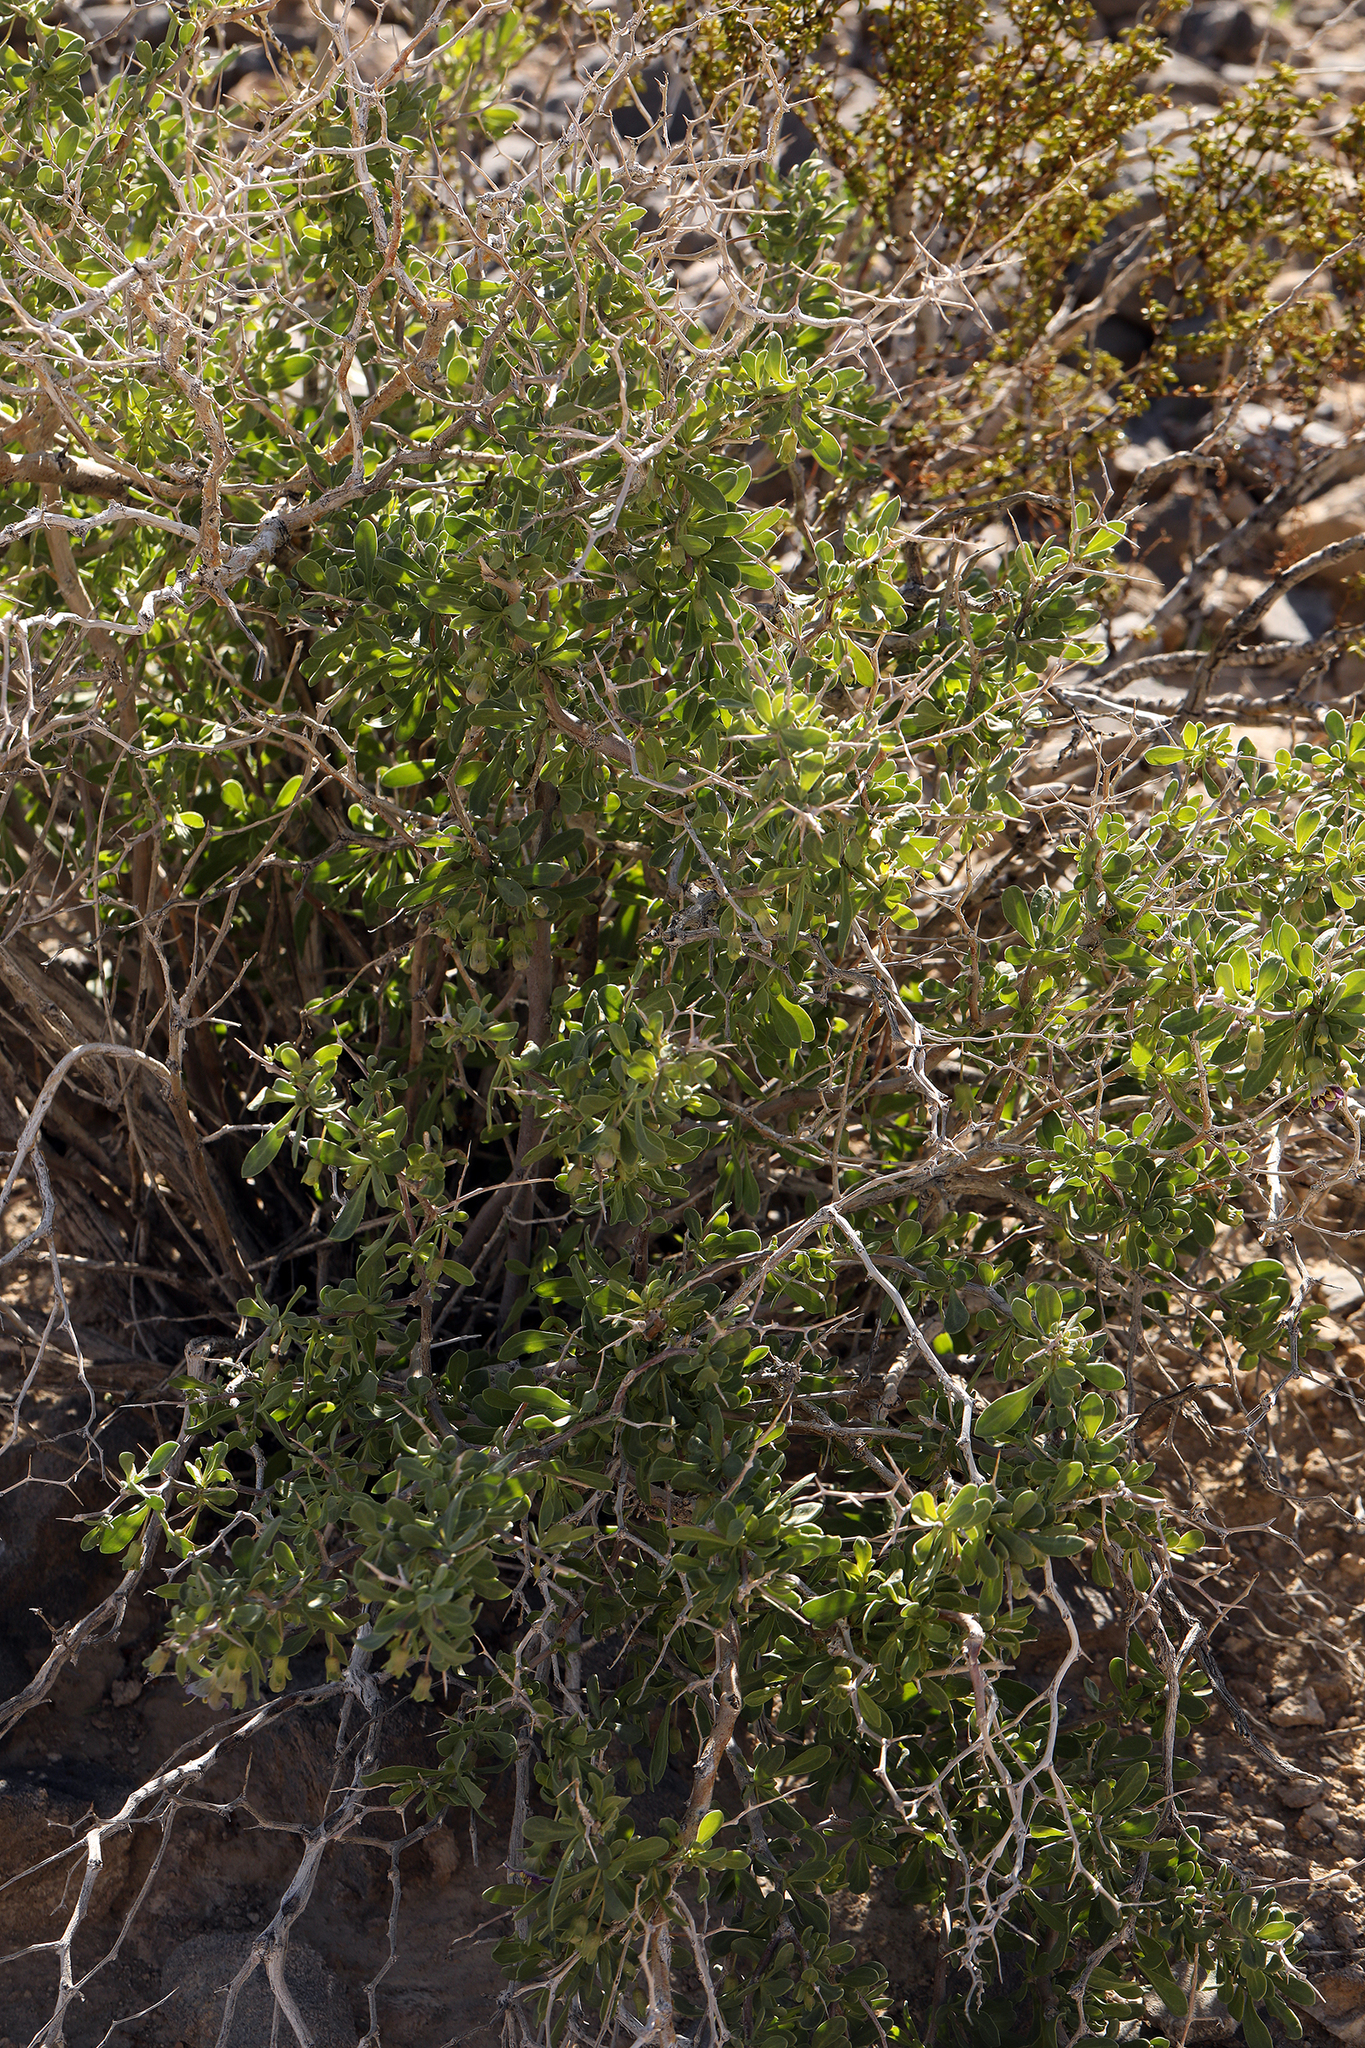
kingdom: Plantae
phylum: Tracheophyta
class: Magnoliopsida
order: Solanales
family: Solanaceae
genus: Lycium
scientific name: Lycium pallidum
